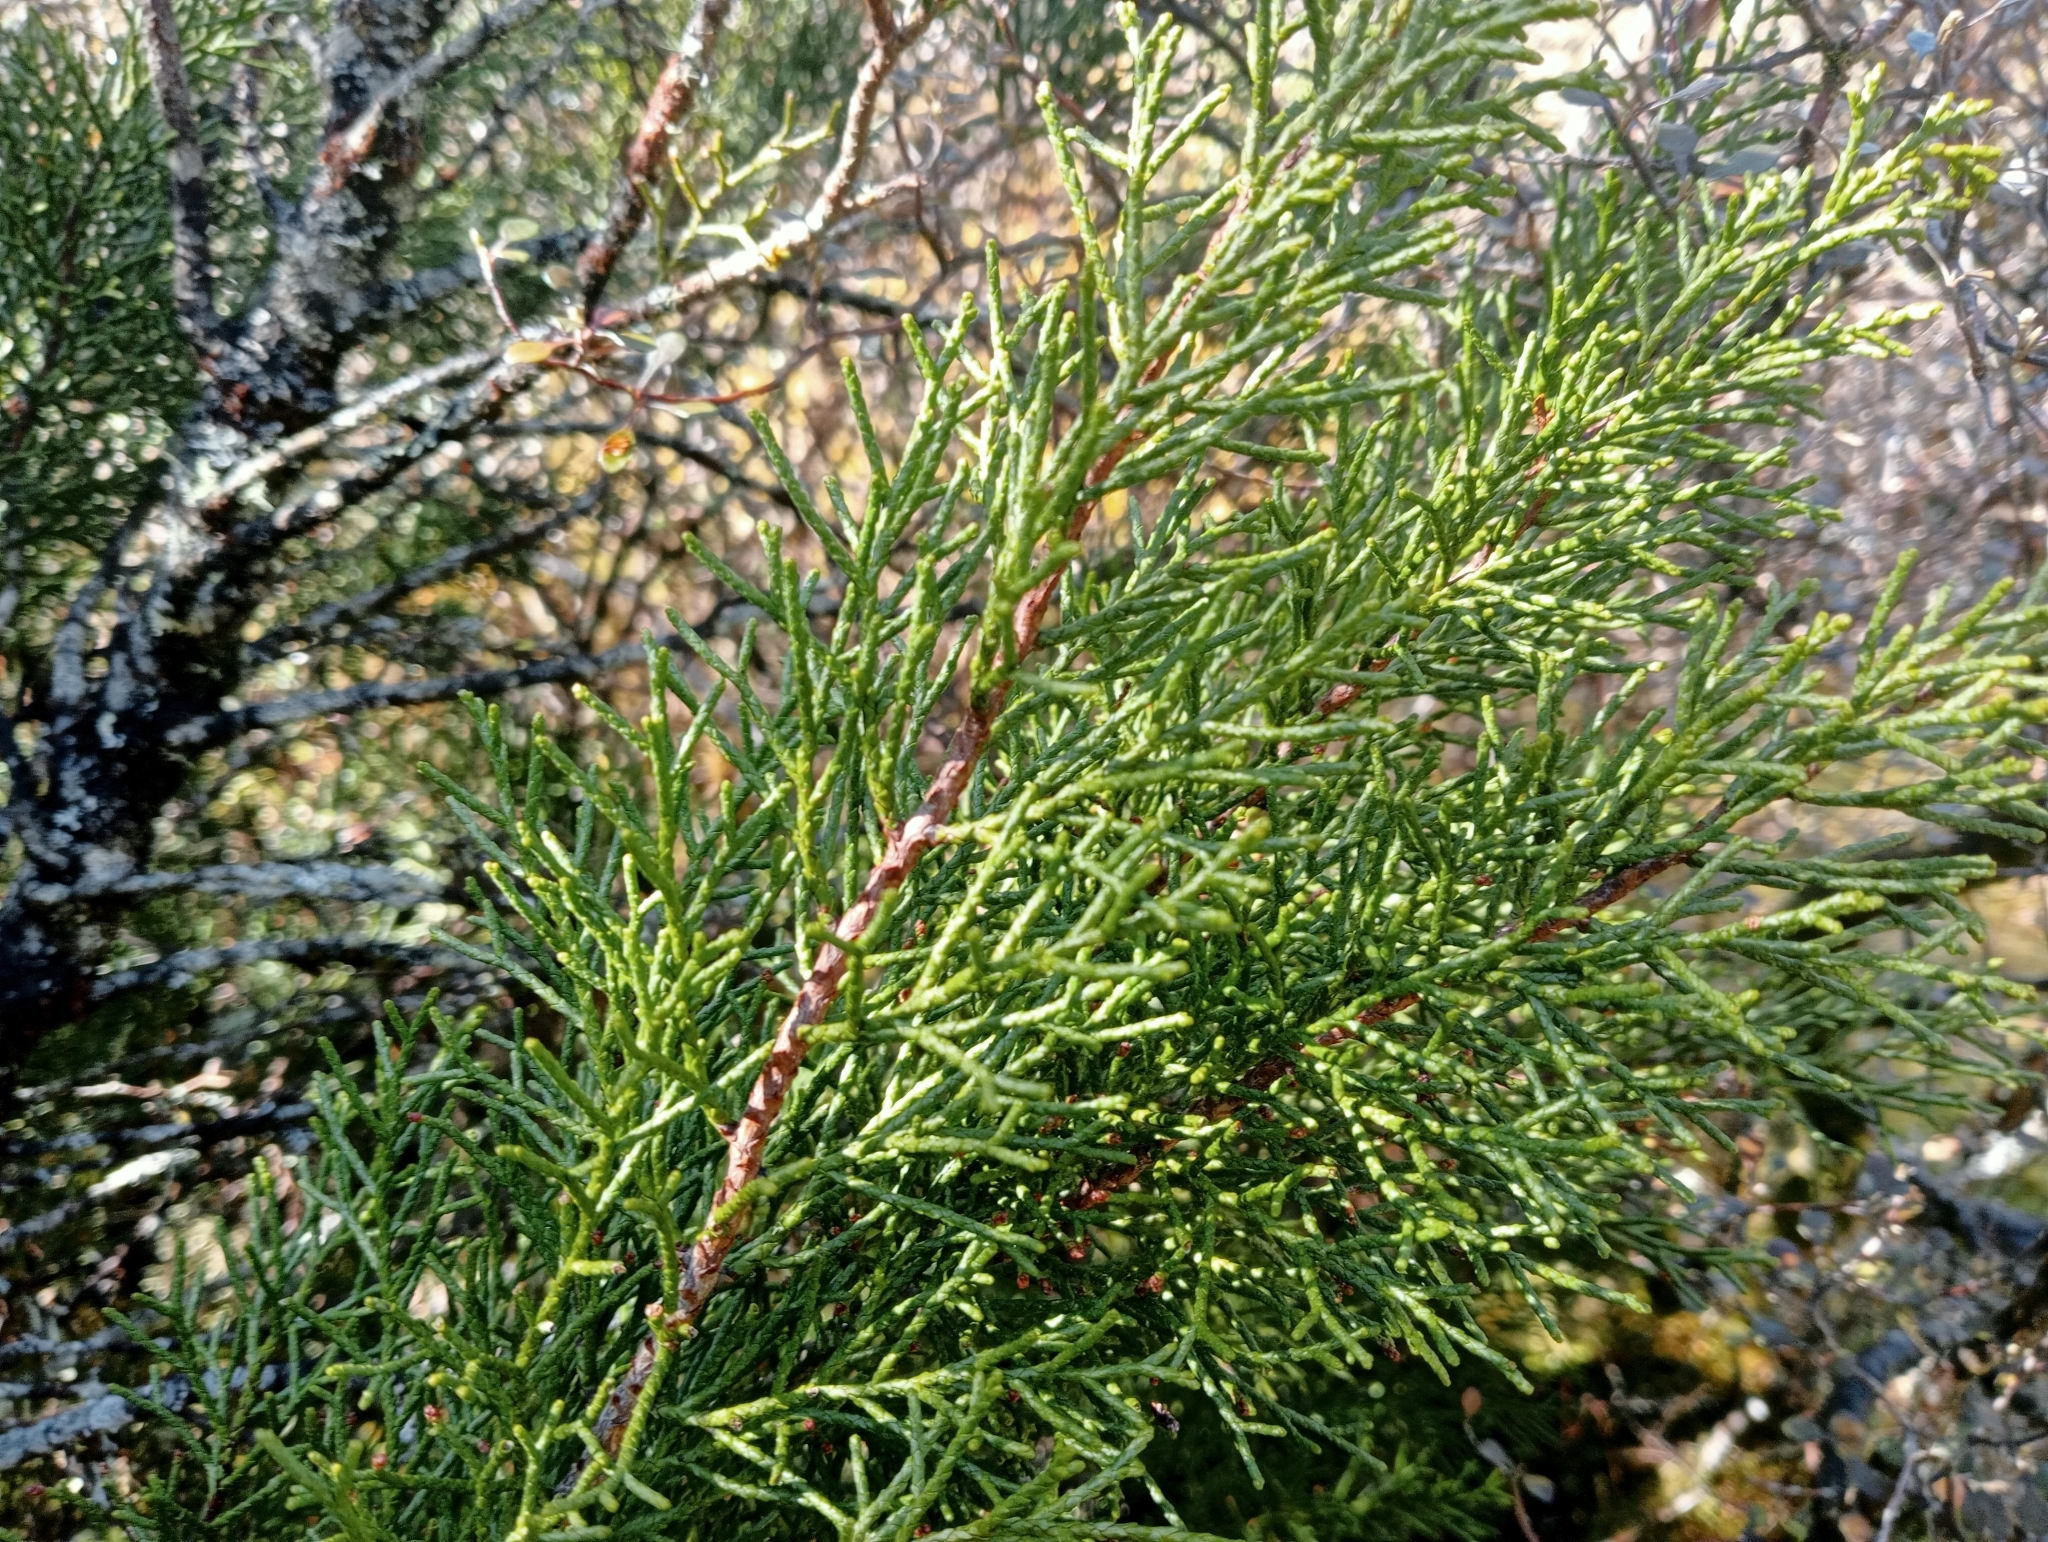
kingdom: Plantae
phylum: Tracheophyta
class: Pinopsida
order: Pinales
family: Podocarpaceae
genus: Halocarpus
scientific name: Halocarpus bidwillii
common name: Bog pine
